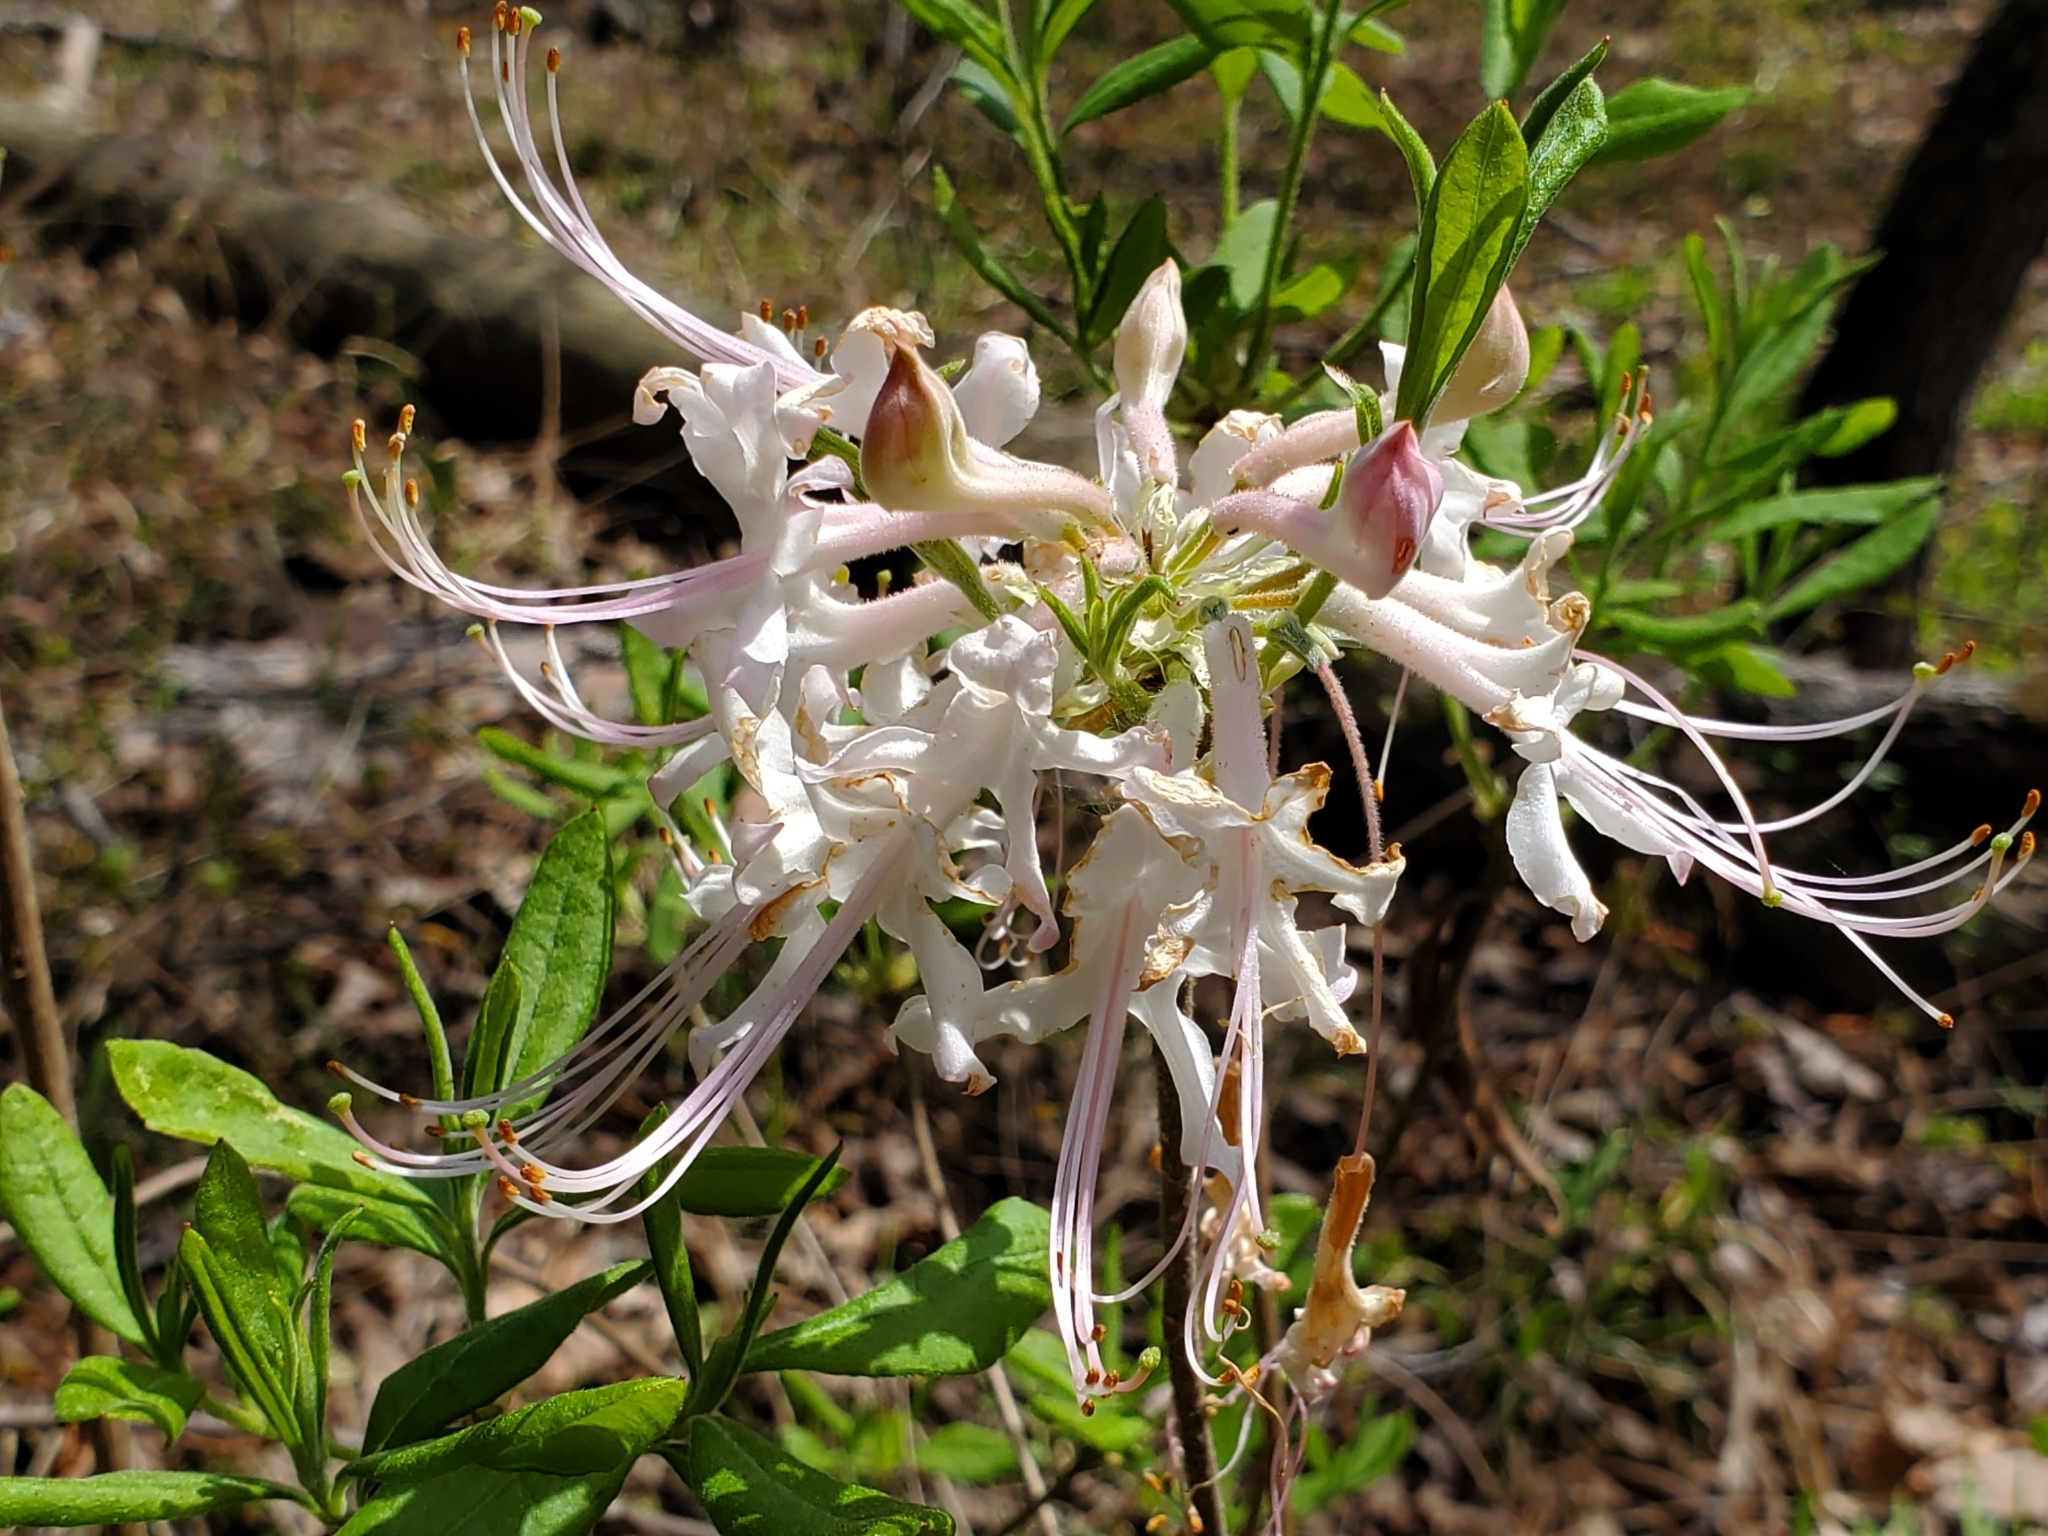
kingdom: Plantae
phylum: Tracheophyta
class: Magnoliopsida
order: Ericales
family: Ericaceae
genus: Rhododendron
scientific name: Rhododendron canescens
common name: Mountain azalea
